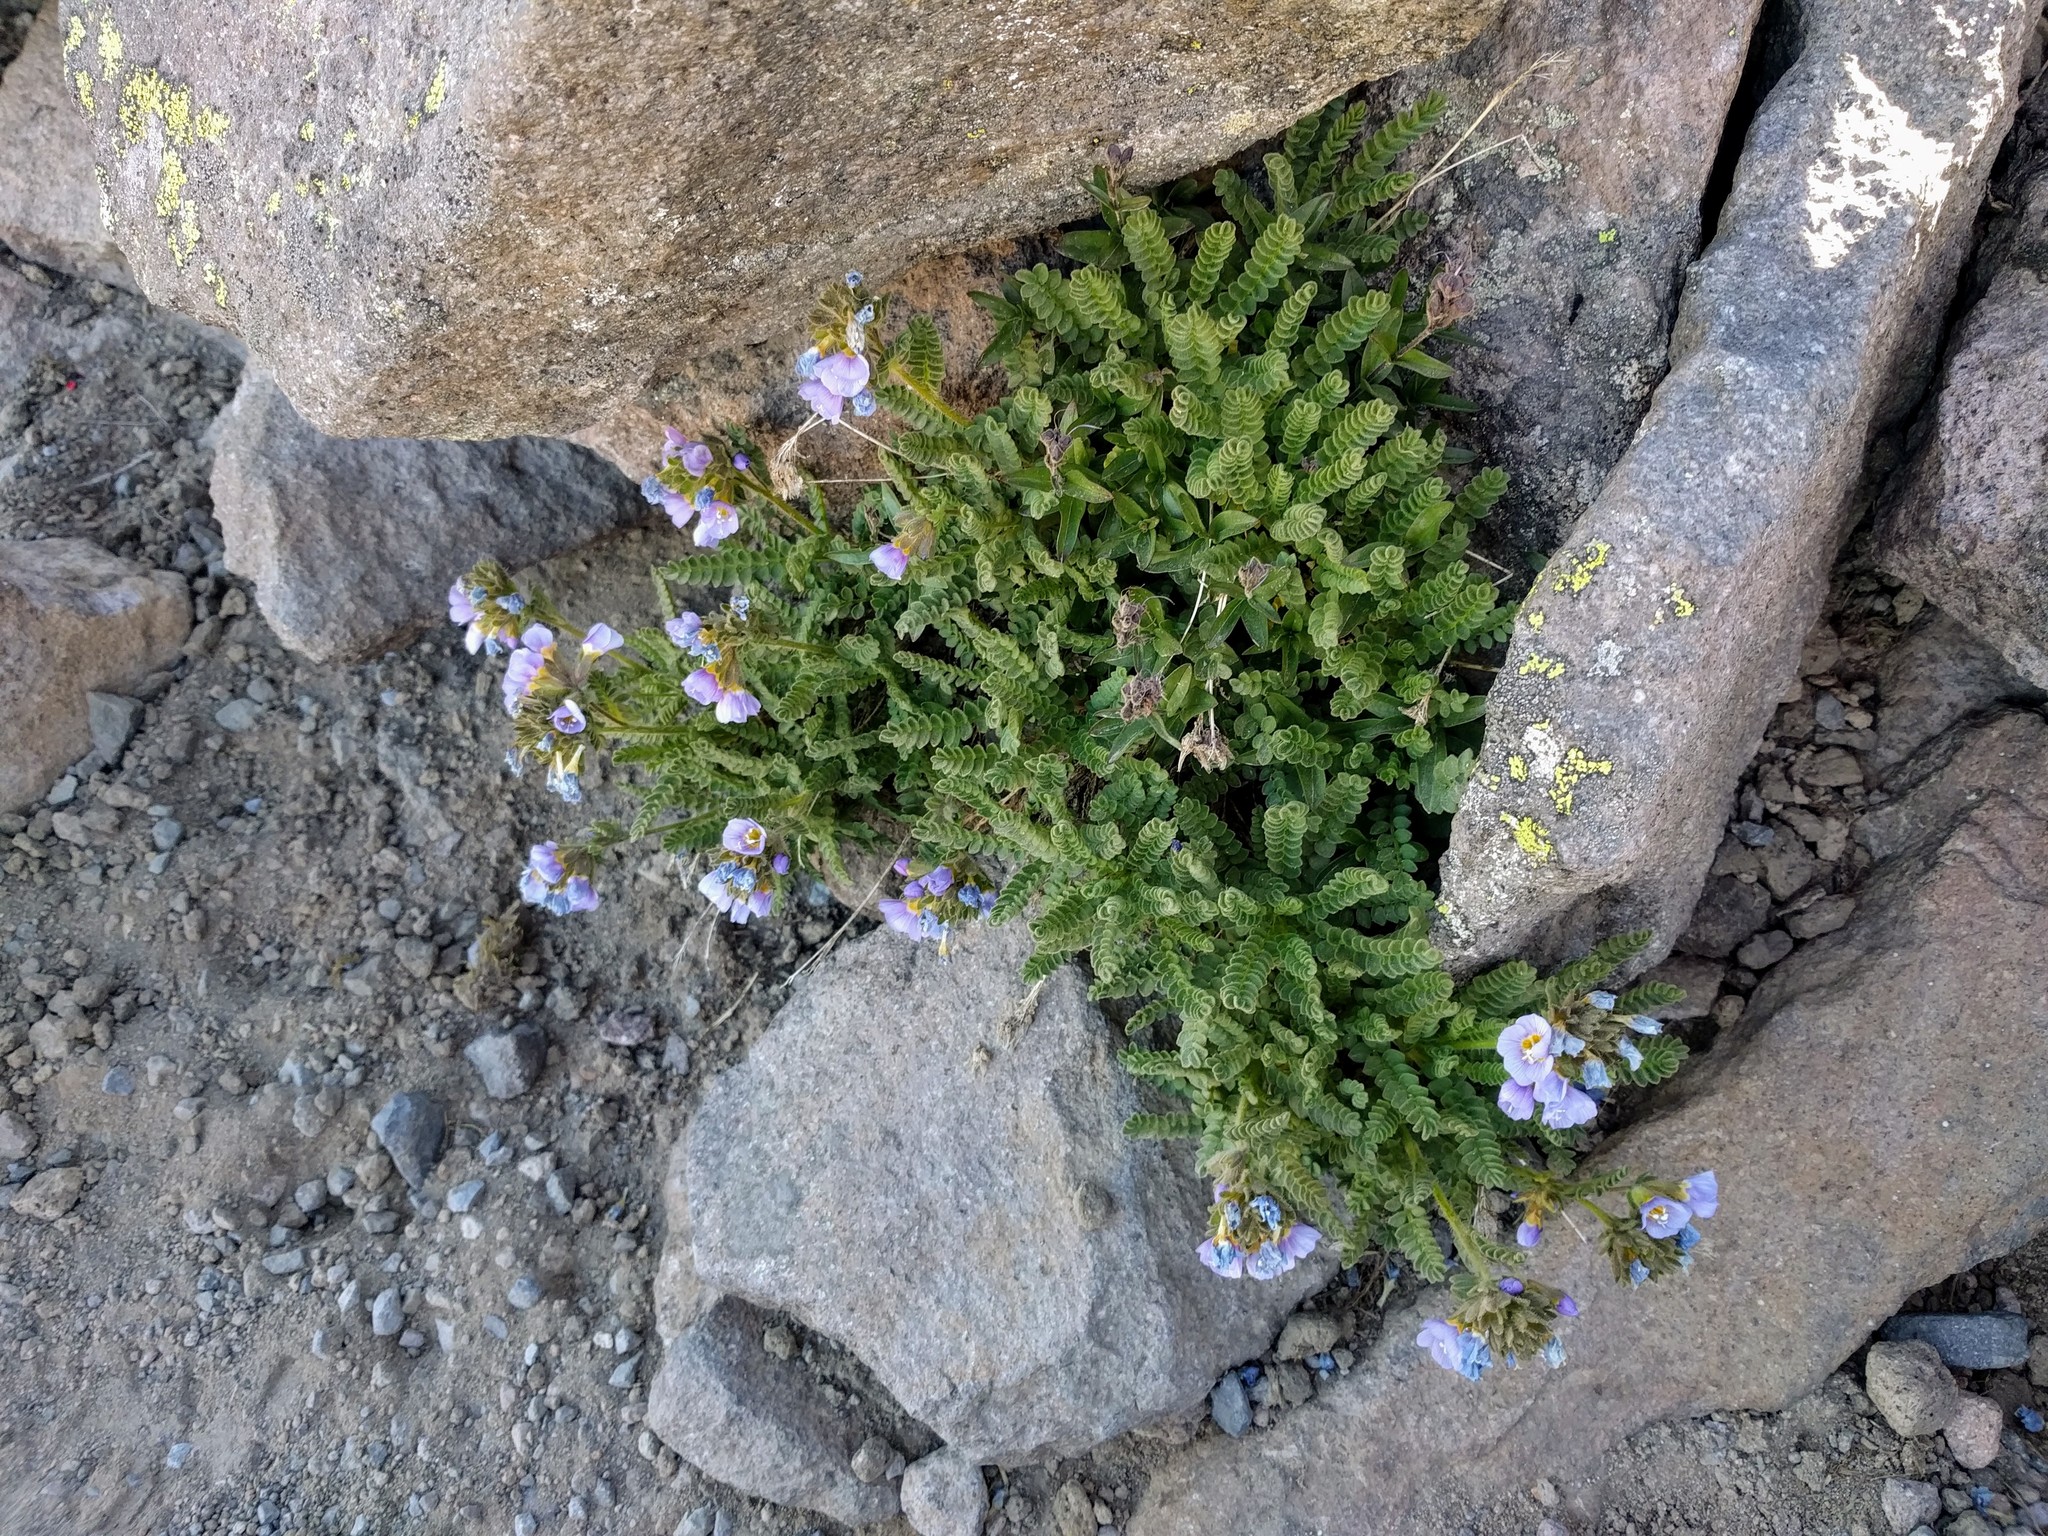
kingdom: Plantae
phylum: Tracheophyta
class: Magnoliopsida
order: Ericales
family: Polemoniaceae
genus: Polemonium
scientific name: Polemonium elegans
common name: Elegant jacob's-ladder
